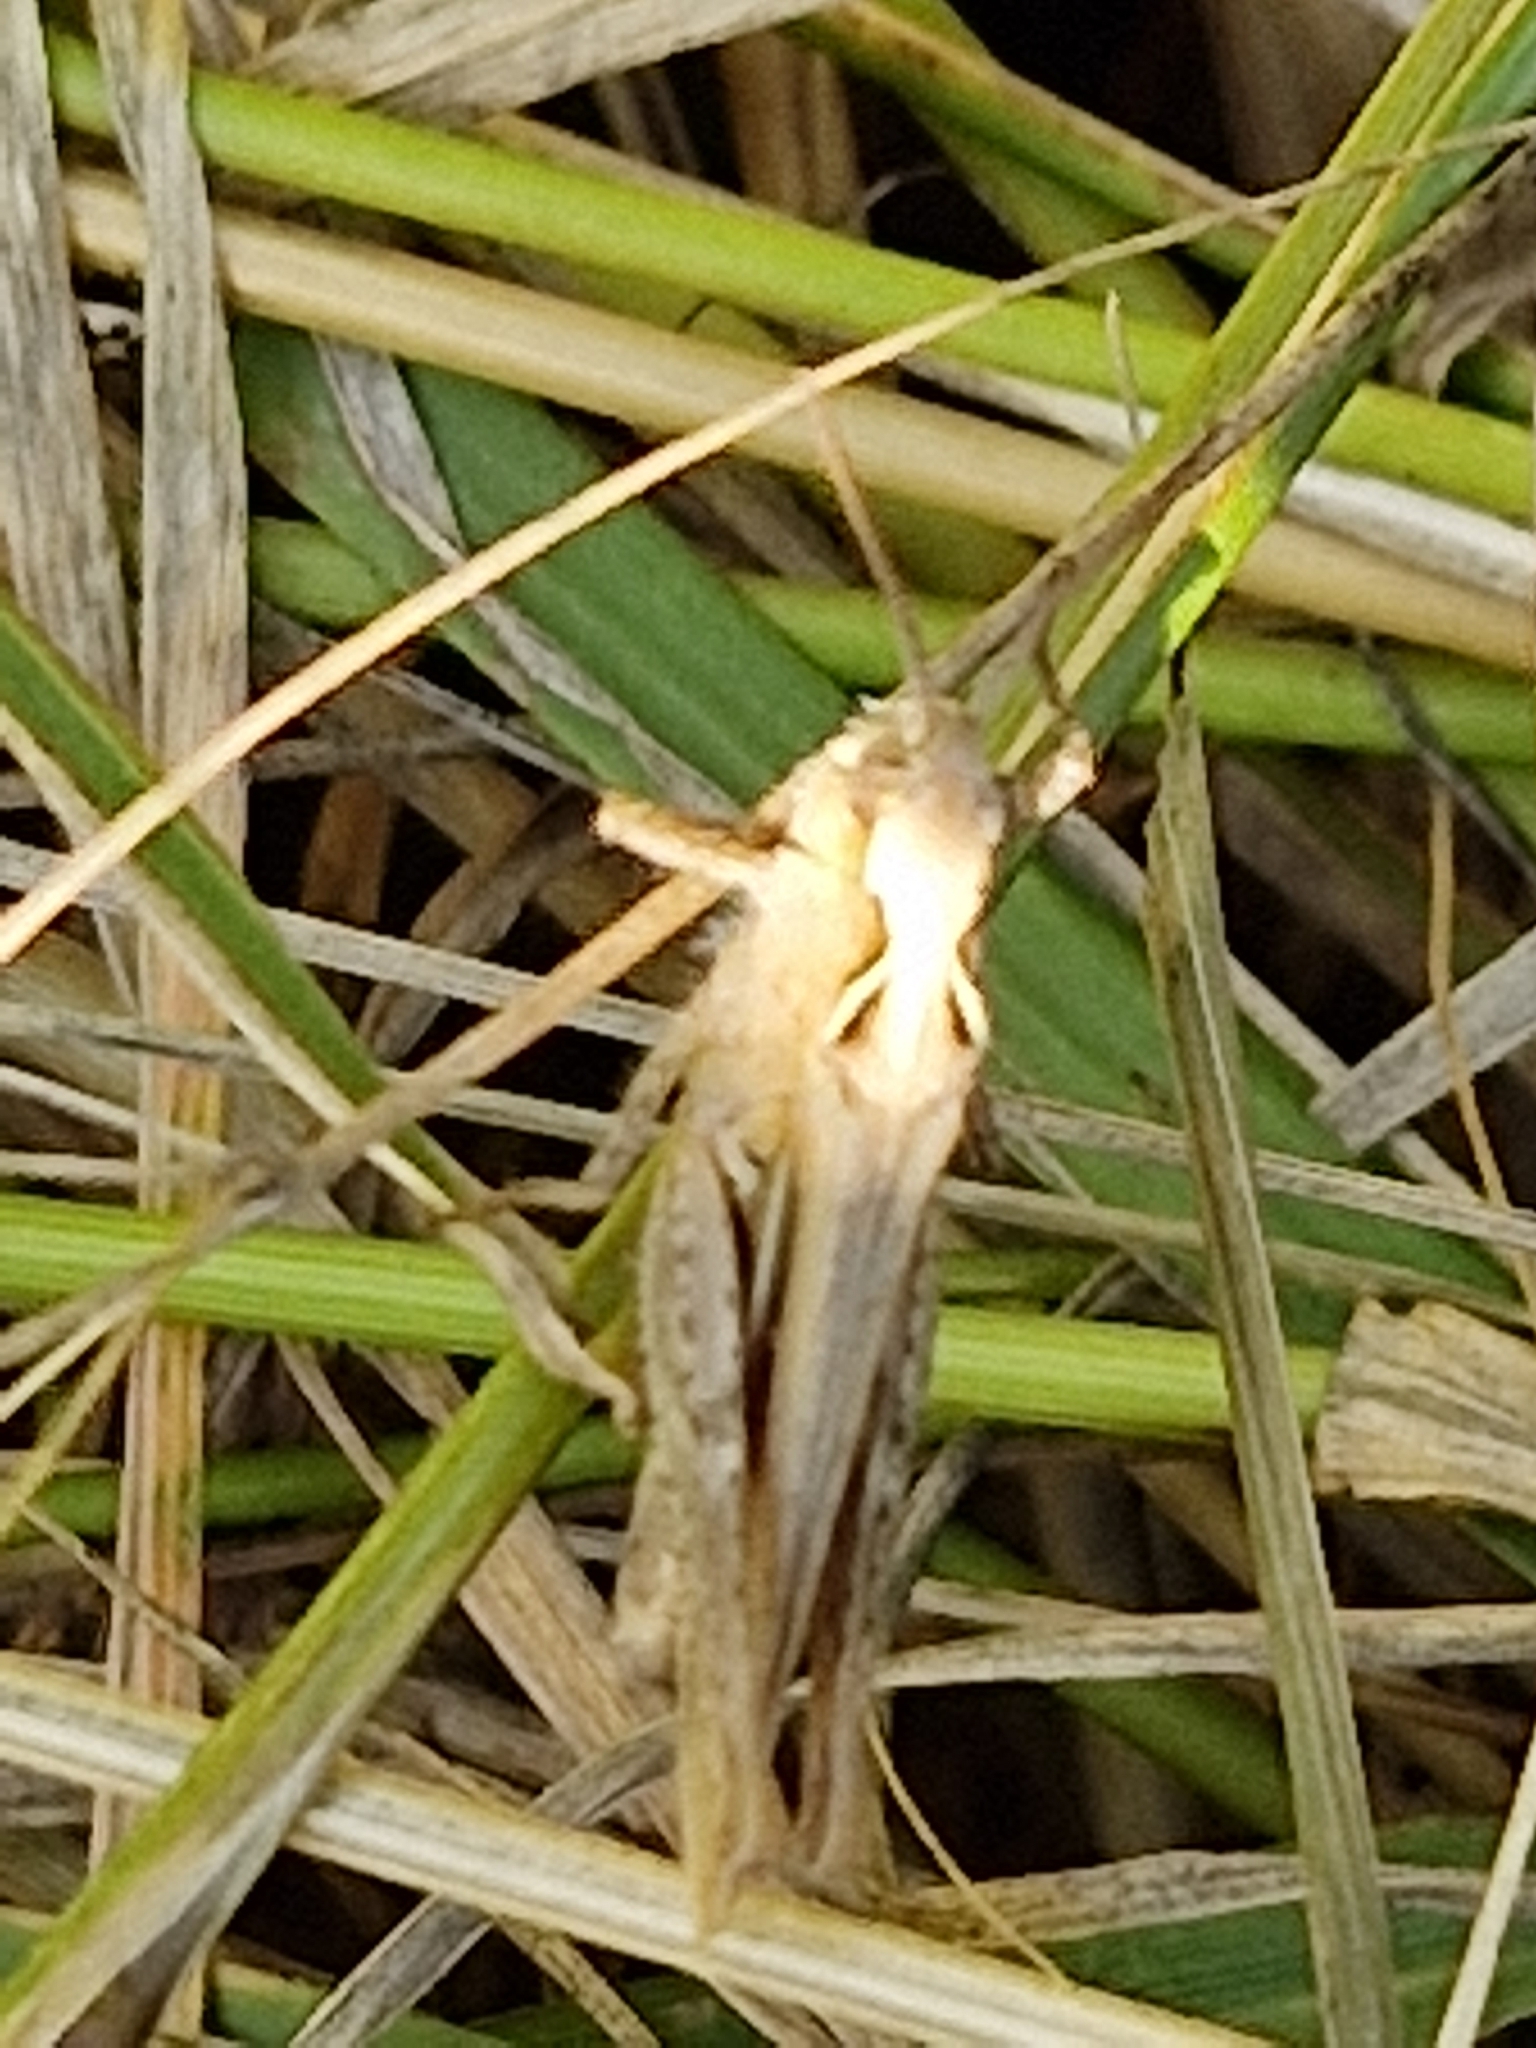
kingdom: Animalia
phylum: Arthropoda
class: Insecta
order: Orthoptera
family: Acrididae
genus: Chorthippus
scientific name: Chorthippus brunneus
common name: Field grasshopper
